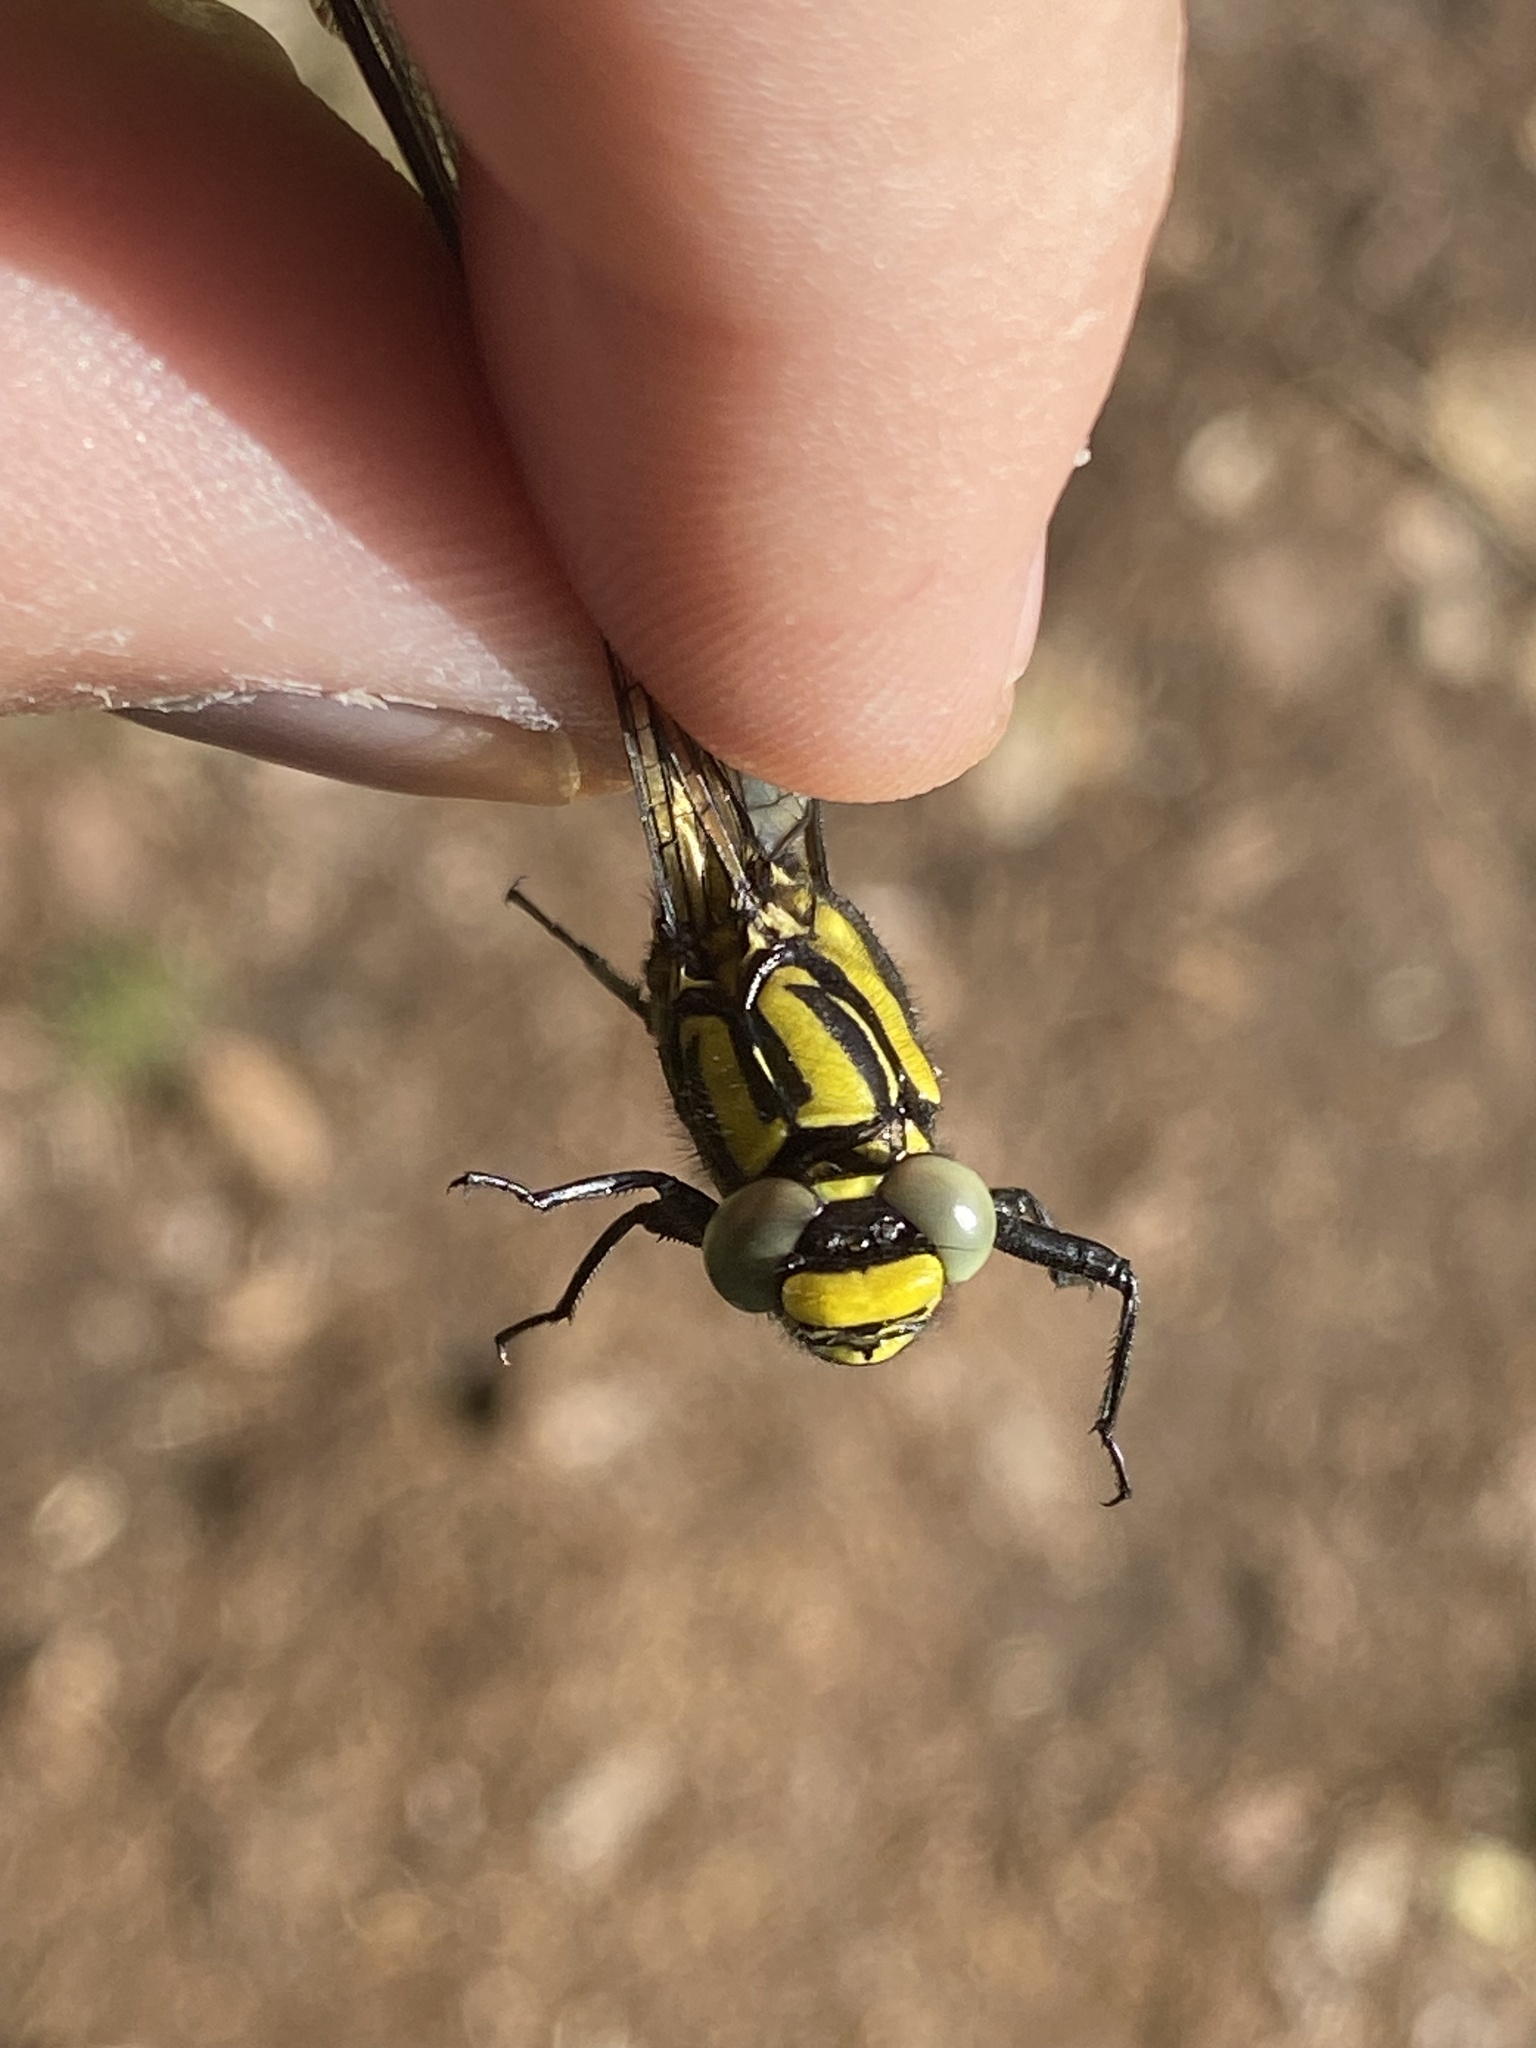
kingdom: Animalia
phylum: Arthropoda
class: Insecta
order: Odonata
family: Gomphidae
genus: Gomphus
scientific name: Gomphus vulgatissimus
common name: Club-tailed dragonfly
